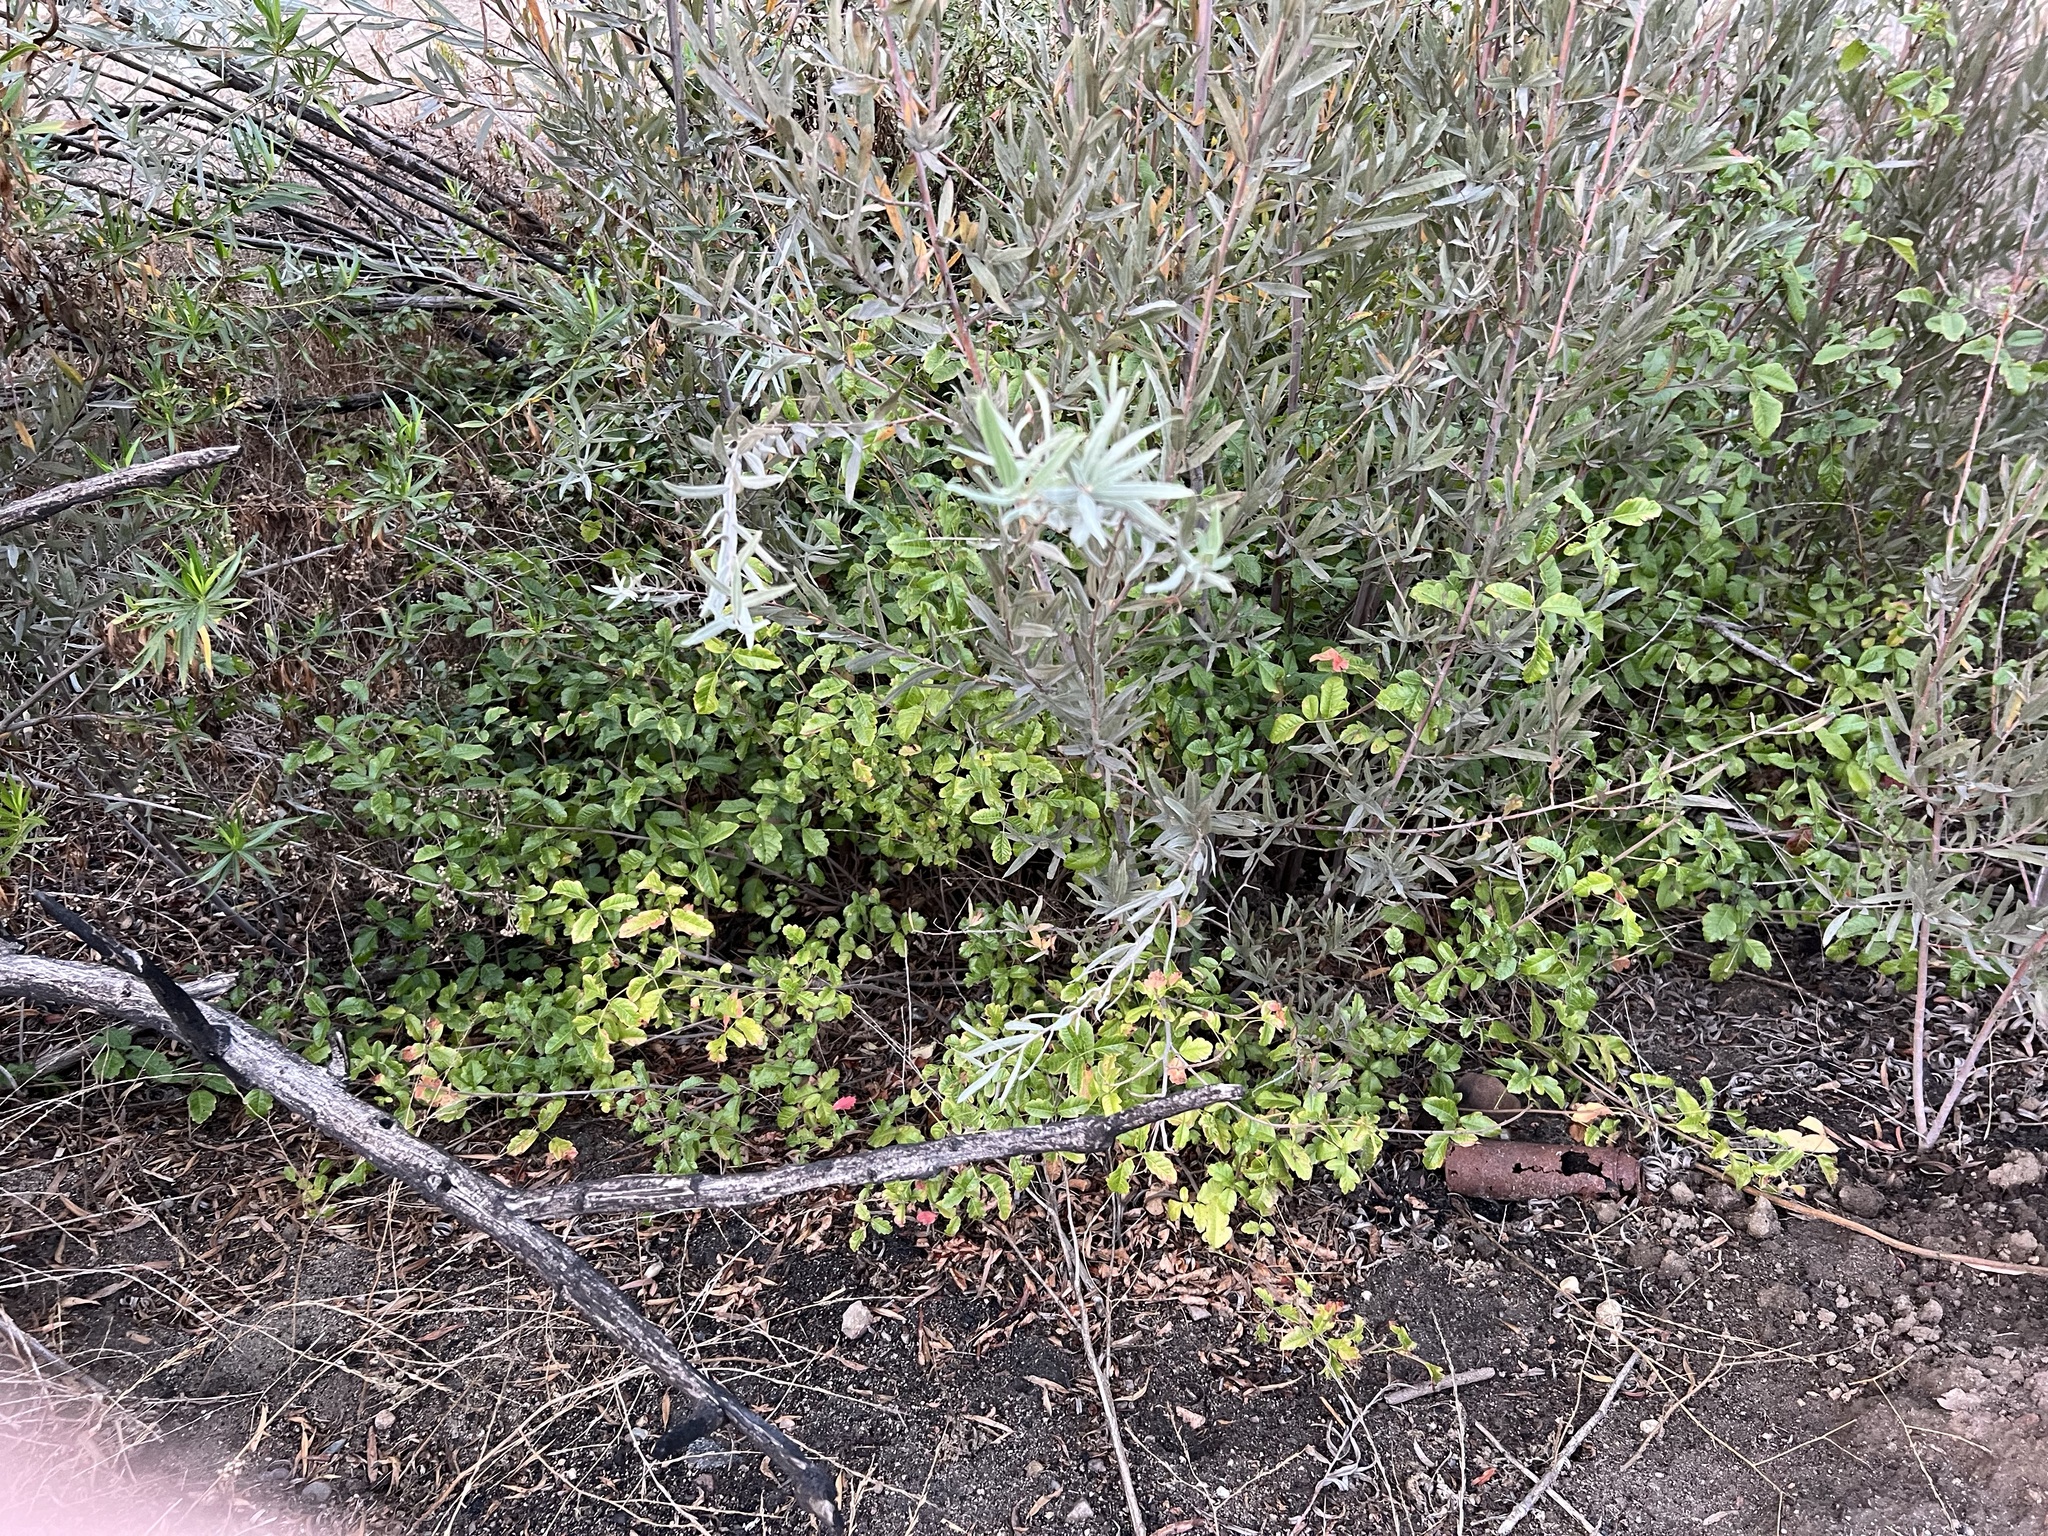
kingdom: Plantae
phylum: Tracheophyta
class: Magnoliopsida
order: Sapindales
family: Anacardiaceae
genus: Toxicodendron
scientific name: Toxicodendron diversilobum
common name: Pacific poison-oak
